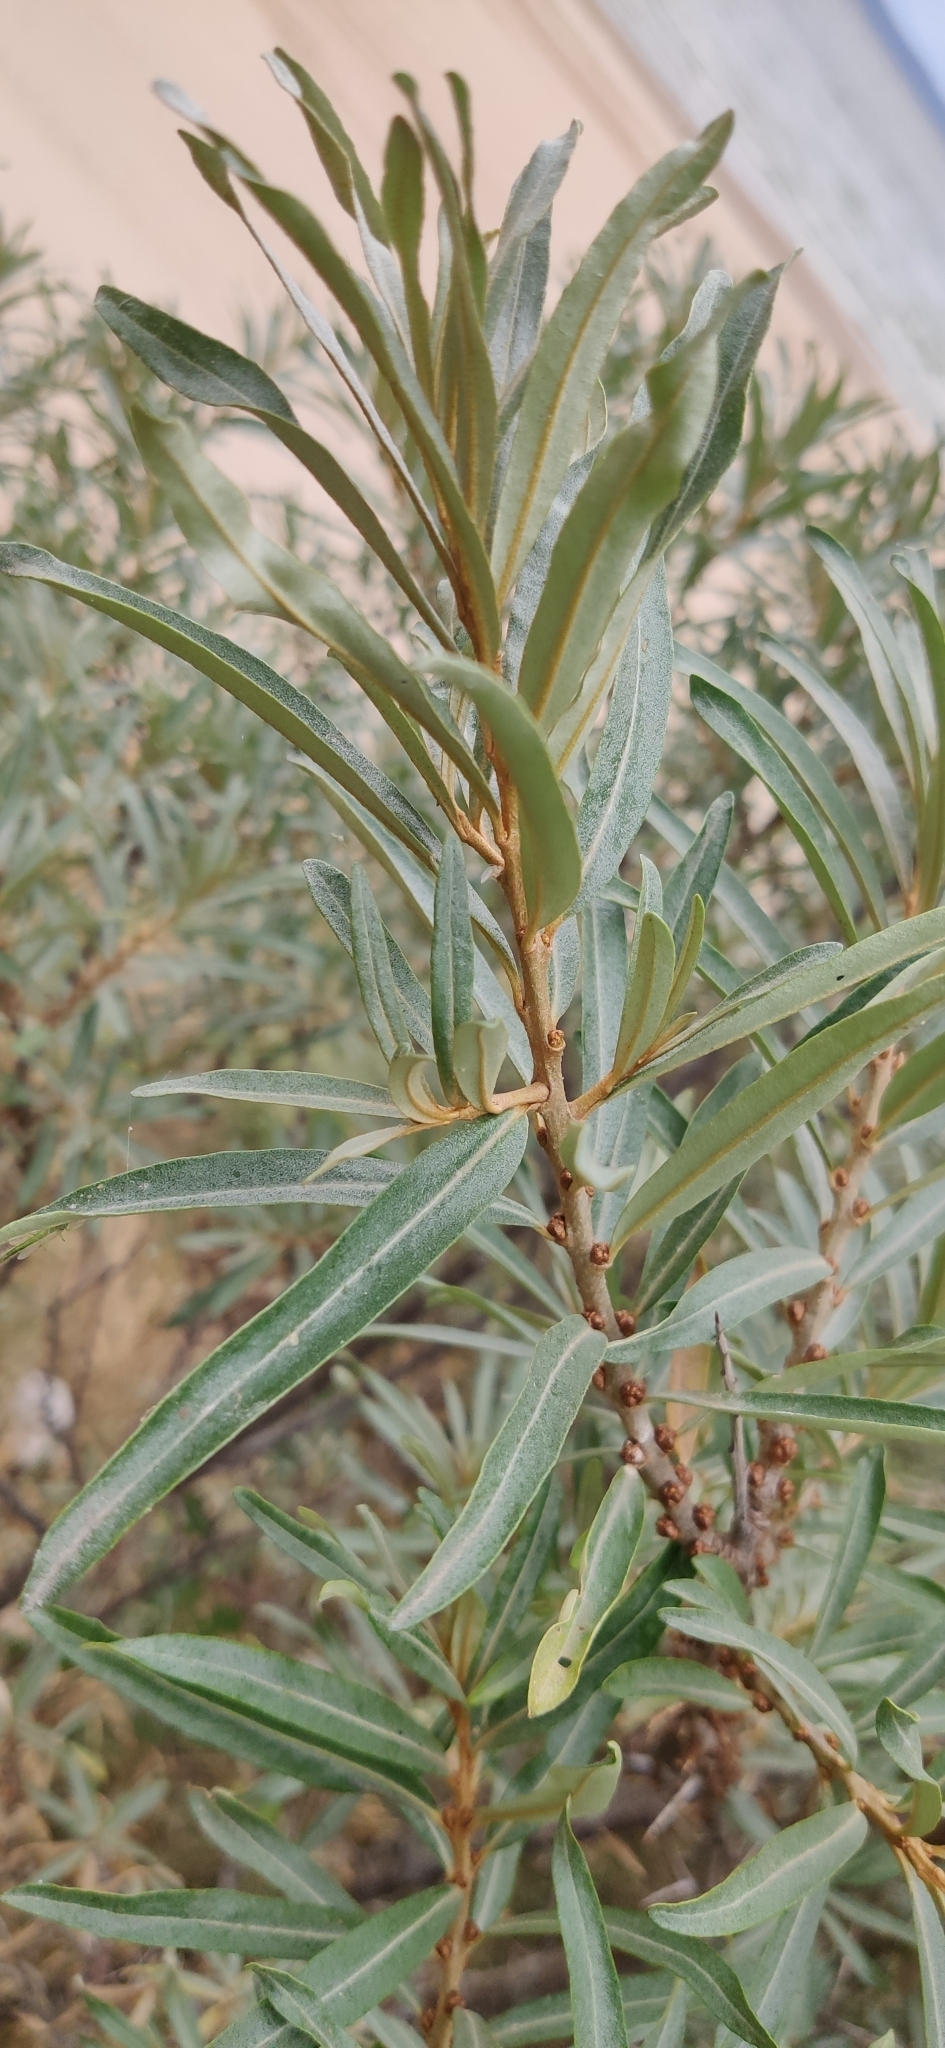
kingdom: Plantae
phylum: Tracheophyta
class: Magnoliopsida
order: Rosales
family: Elaeagnaceae
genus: Hippophae
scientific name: Hippophae rhamnoides
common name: Sea-buckthorn
